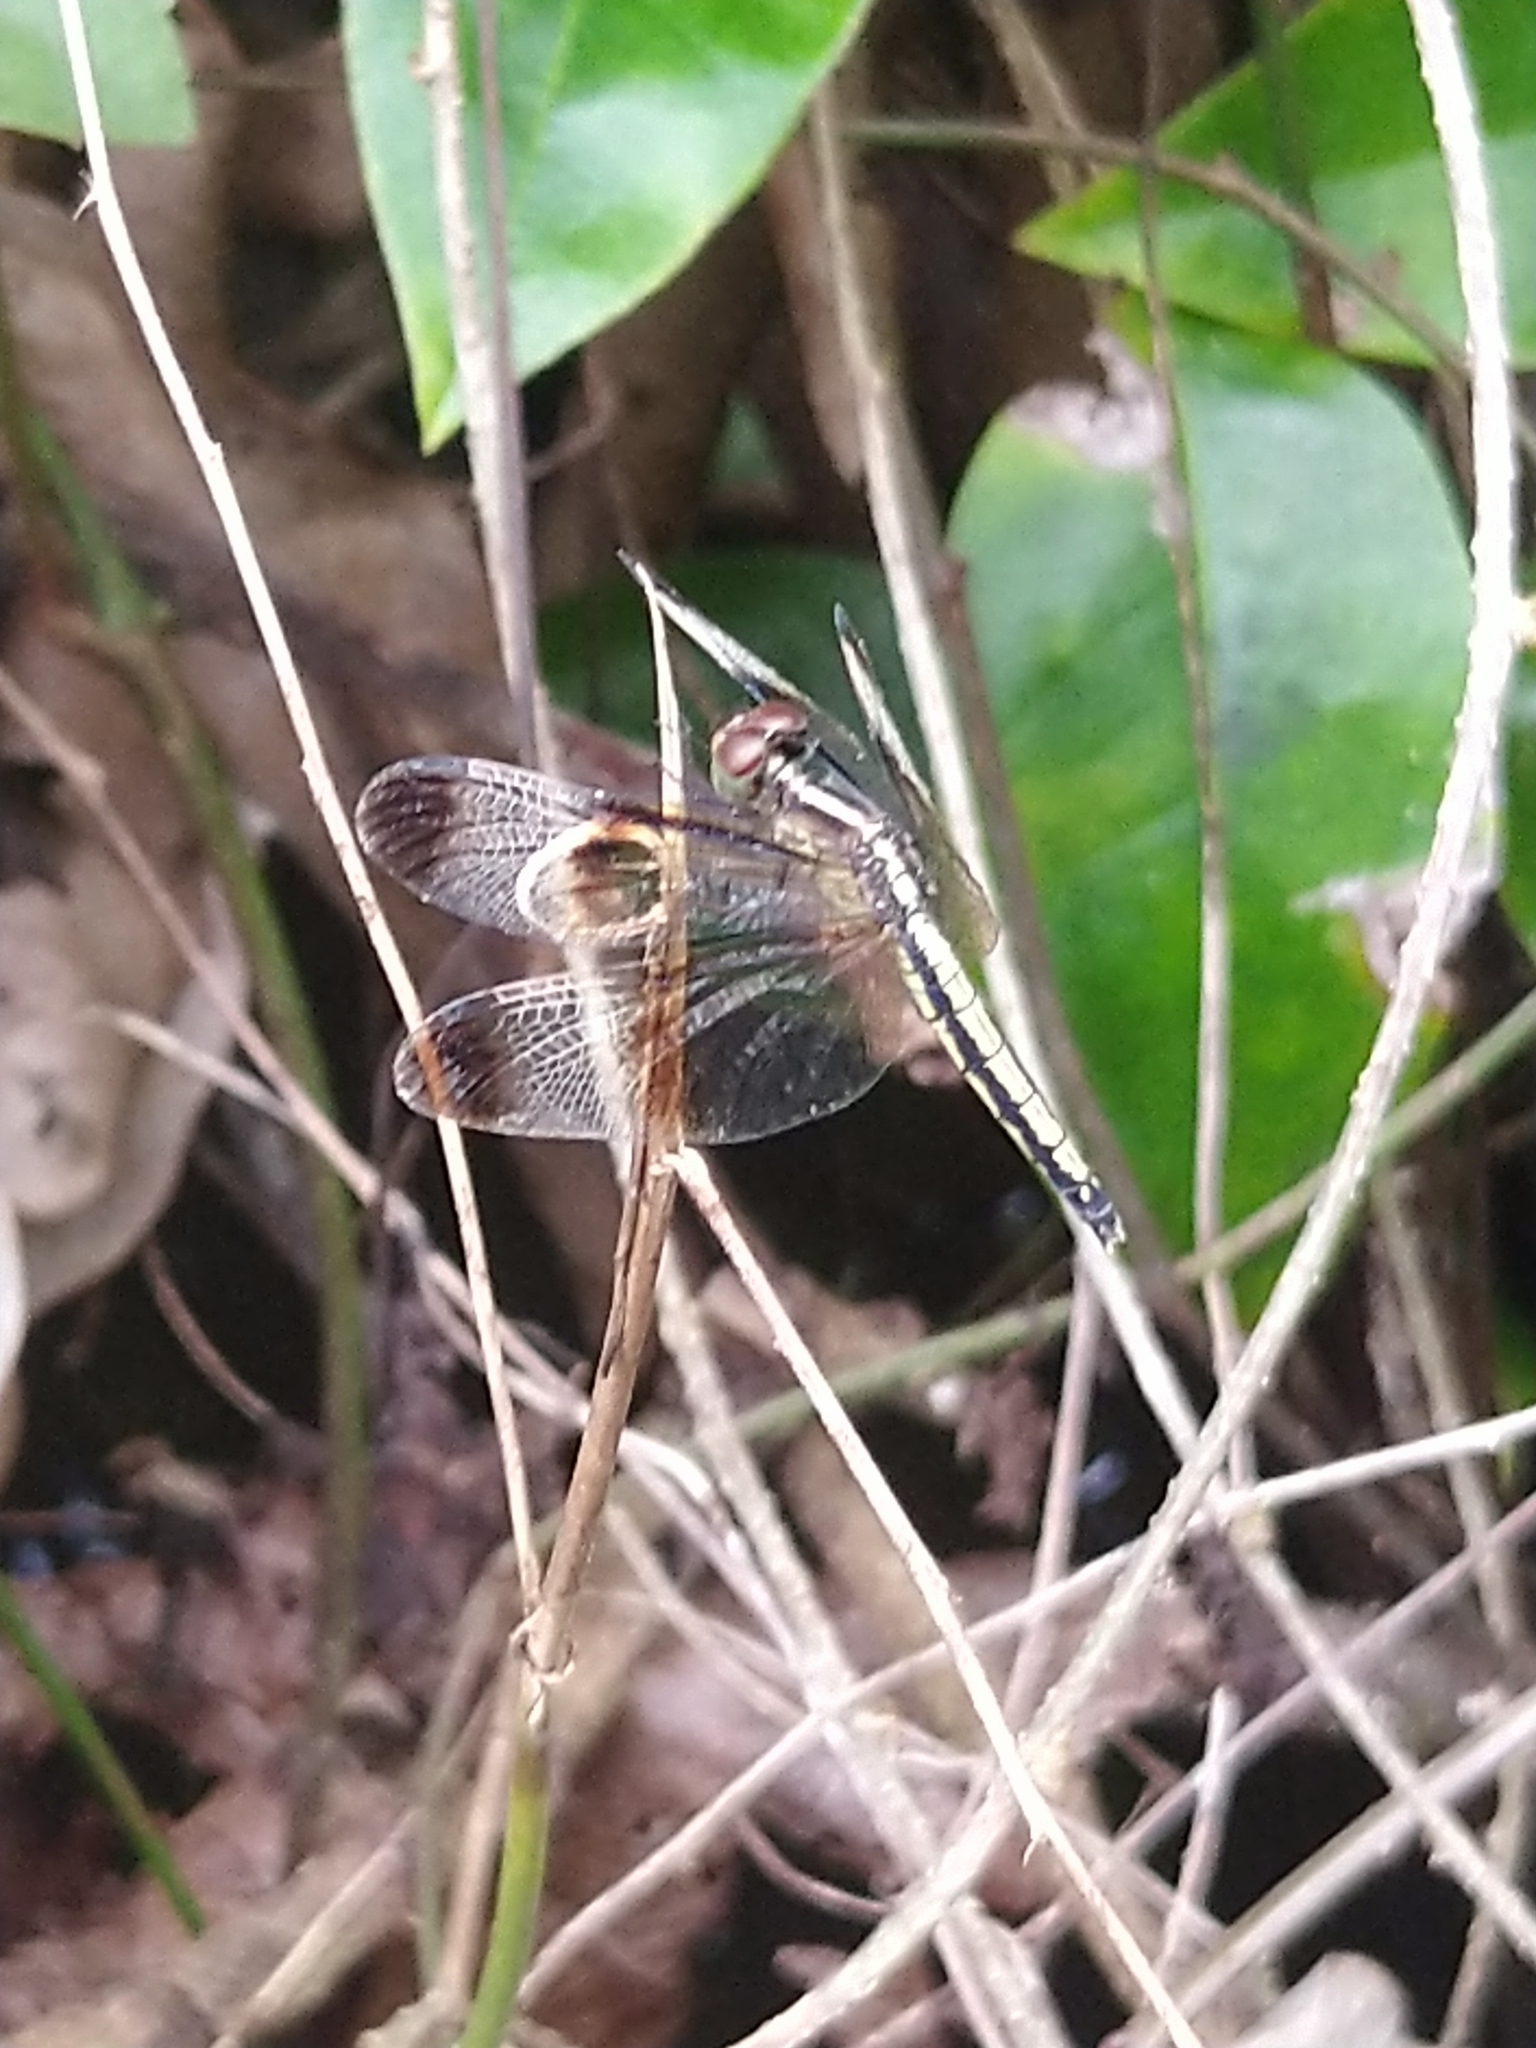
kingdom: Animalia
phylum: Arthropoda
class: Insecta
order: Odonata
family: Libellulidae
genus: Neurothemis
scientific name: Neurothemis tullia
